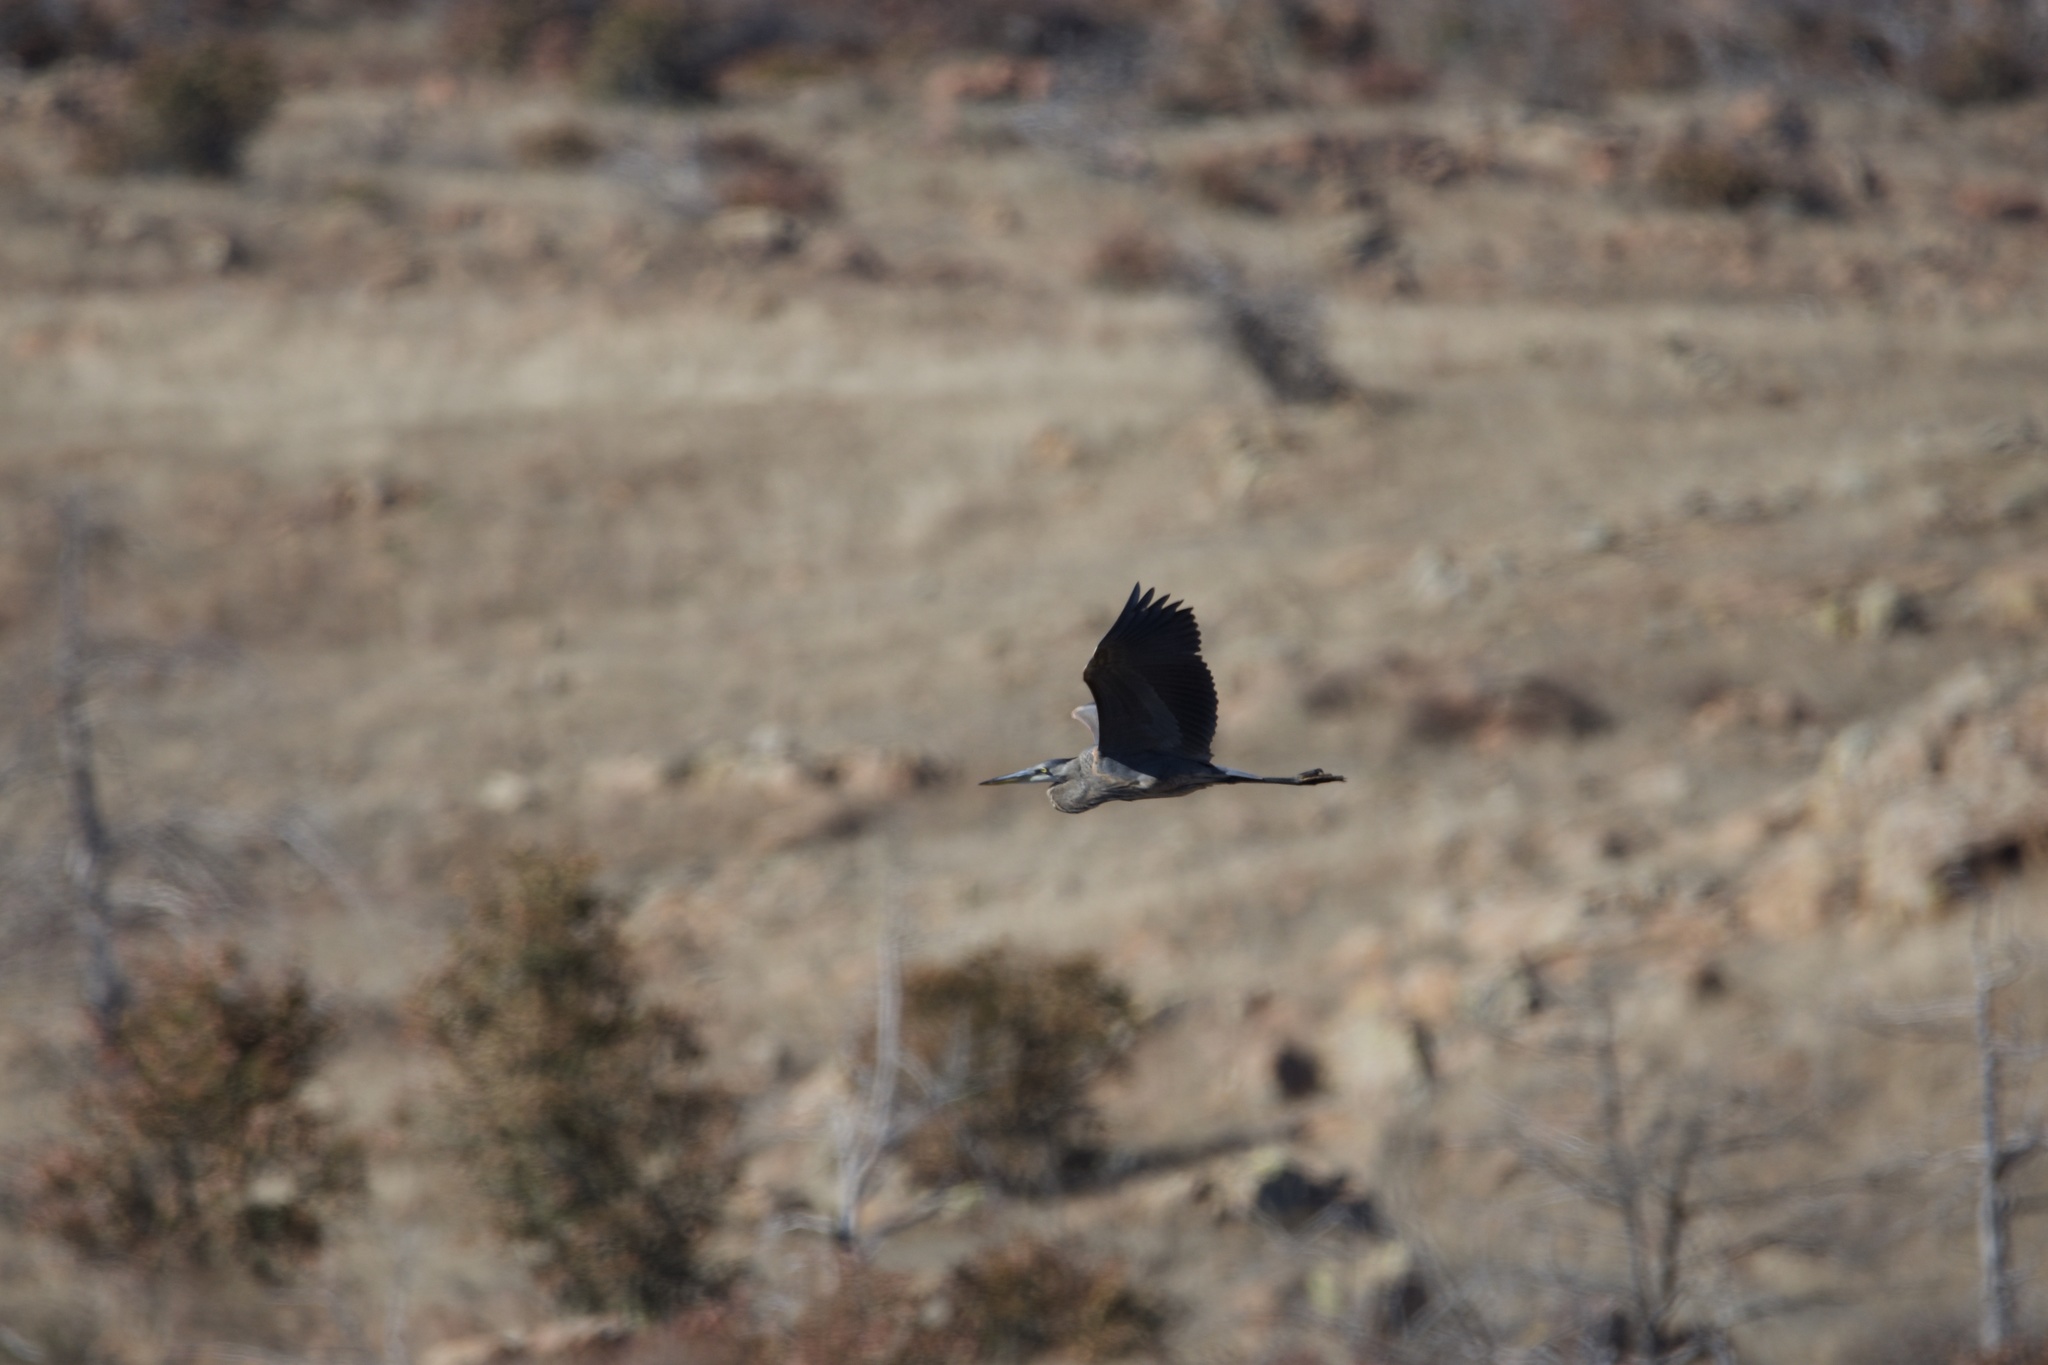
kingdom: Animalia
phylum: Chordata
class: Aves
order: Pelecaniformes
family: Ardeidae
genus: Ardea
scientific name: Ardea herodias
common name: Great blue heron
